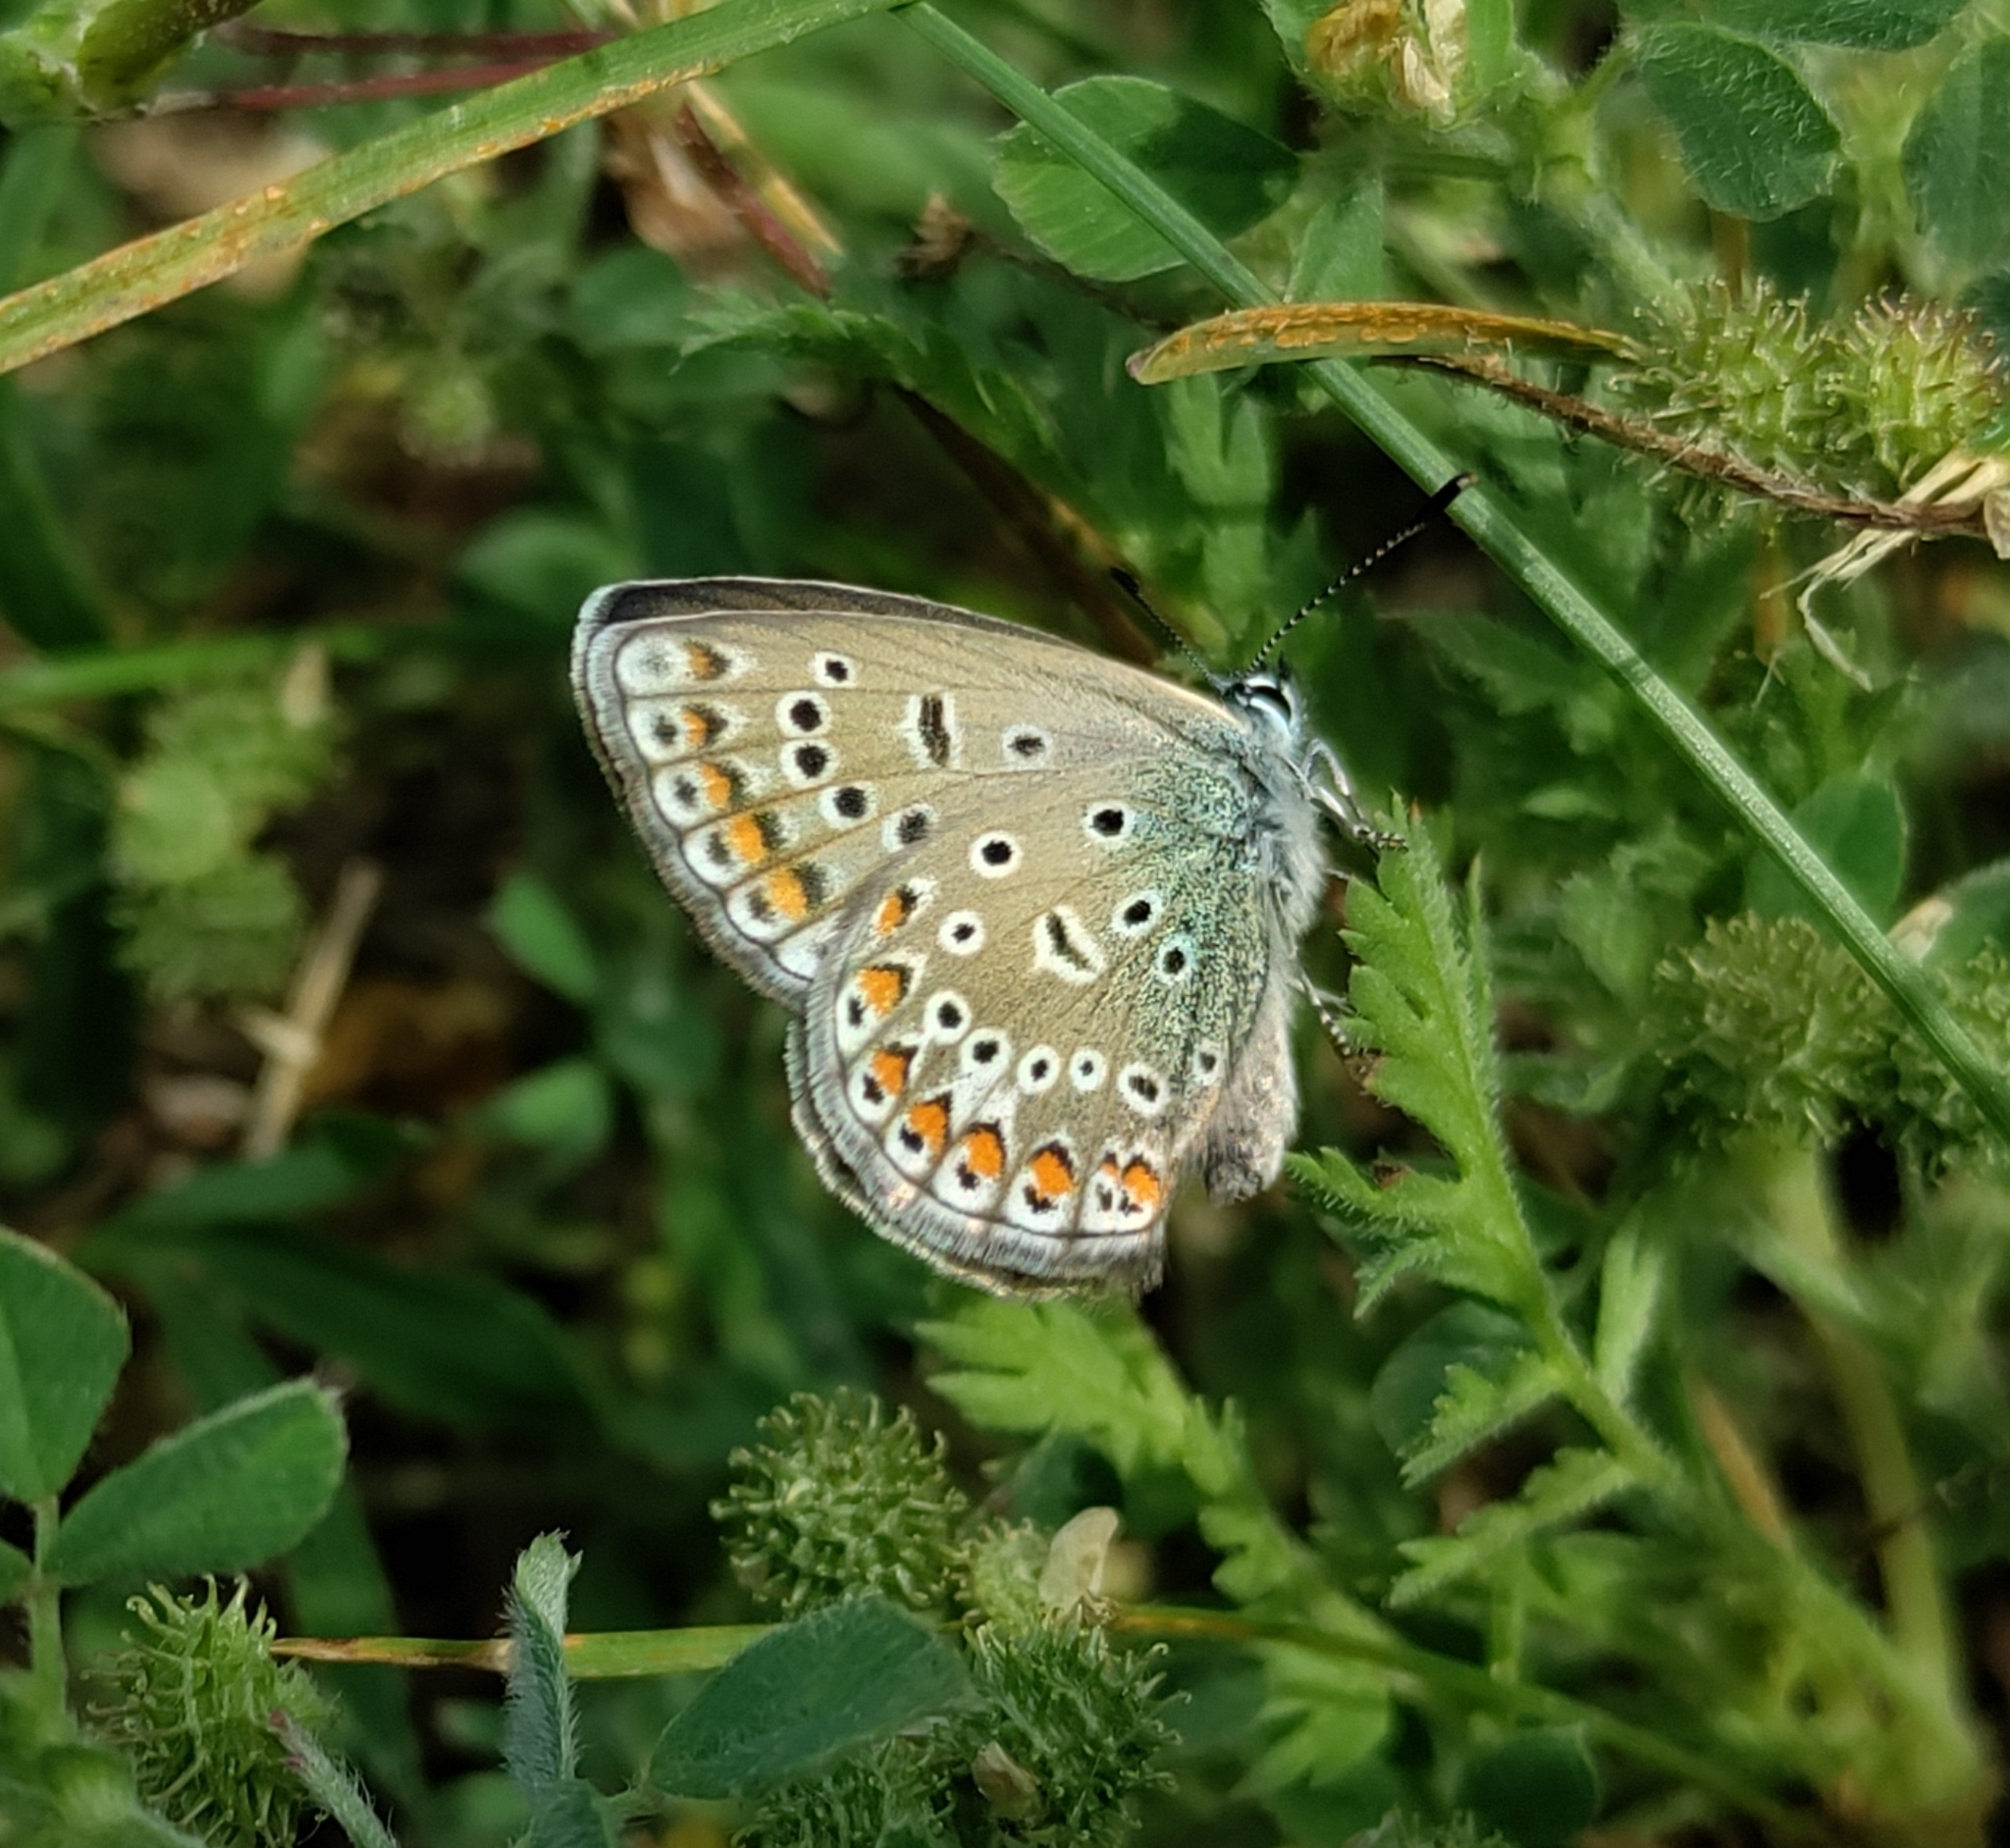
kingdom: Animalia
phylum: Arthropoda
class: Insecta
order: Lepidoptera
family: Lycaenidae
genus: Polyommatus
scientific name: Polyommatus icarus
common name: Common blue
